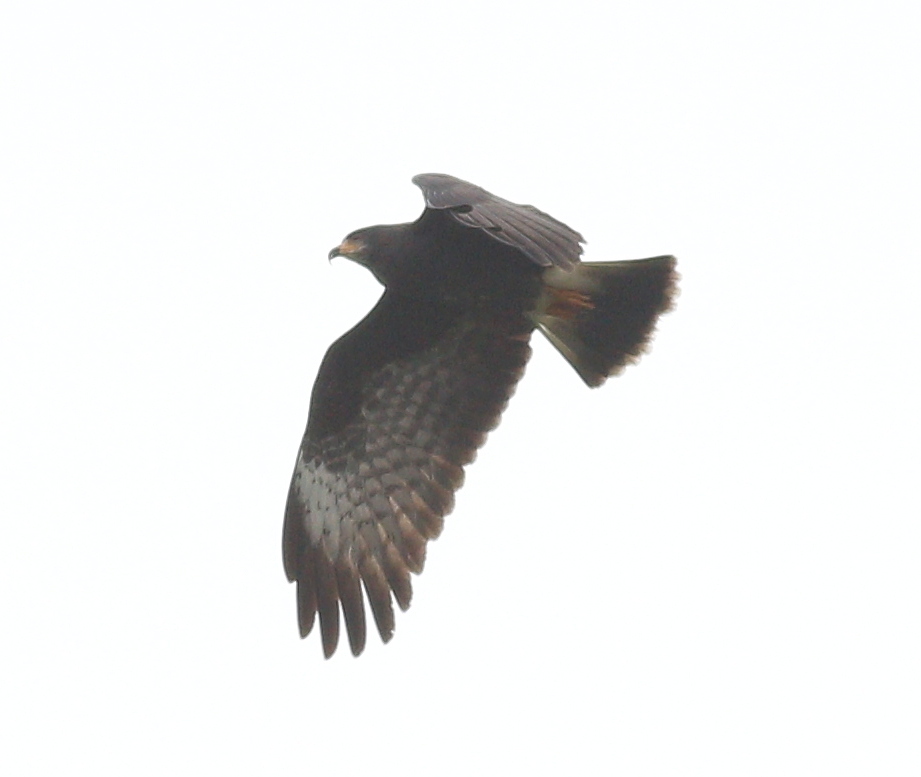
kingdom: Animalia
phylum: Chordata
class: Aves
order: Accipitriformes
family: Accipitridae
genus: Rostrhamus
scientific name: Rostrhamus sociabilis
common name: Snail kite
